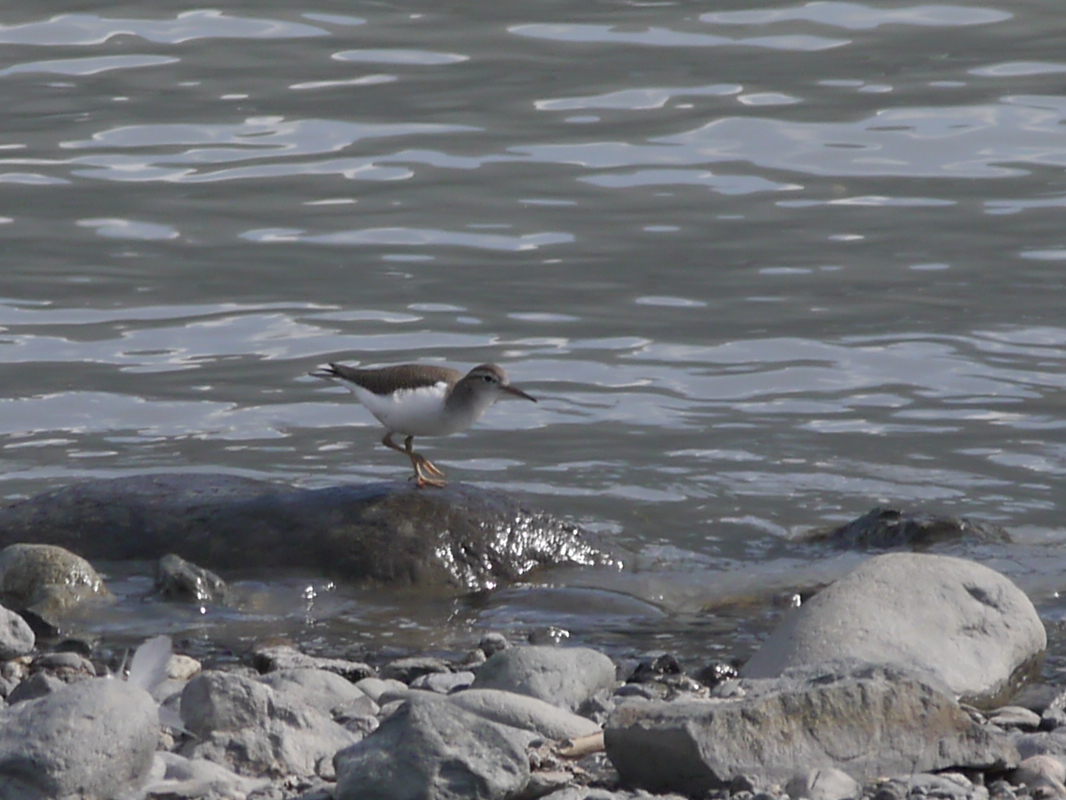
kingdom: Animalia
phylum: Chordata
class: Aves
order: Charadriiformes
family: Scolopacidae
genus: Actitis
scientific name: Actitis macularius
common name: Spotted sandpiper
